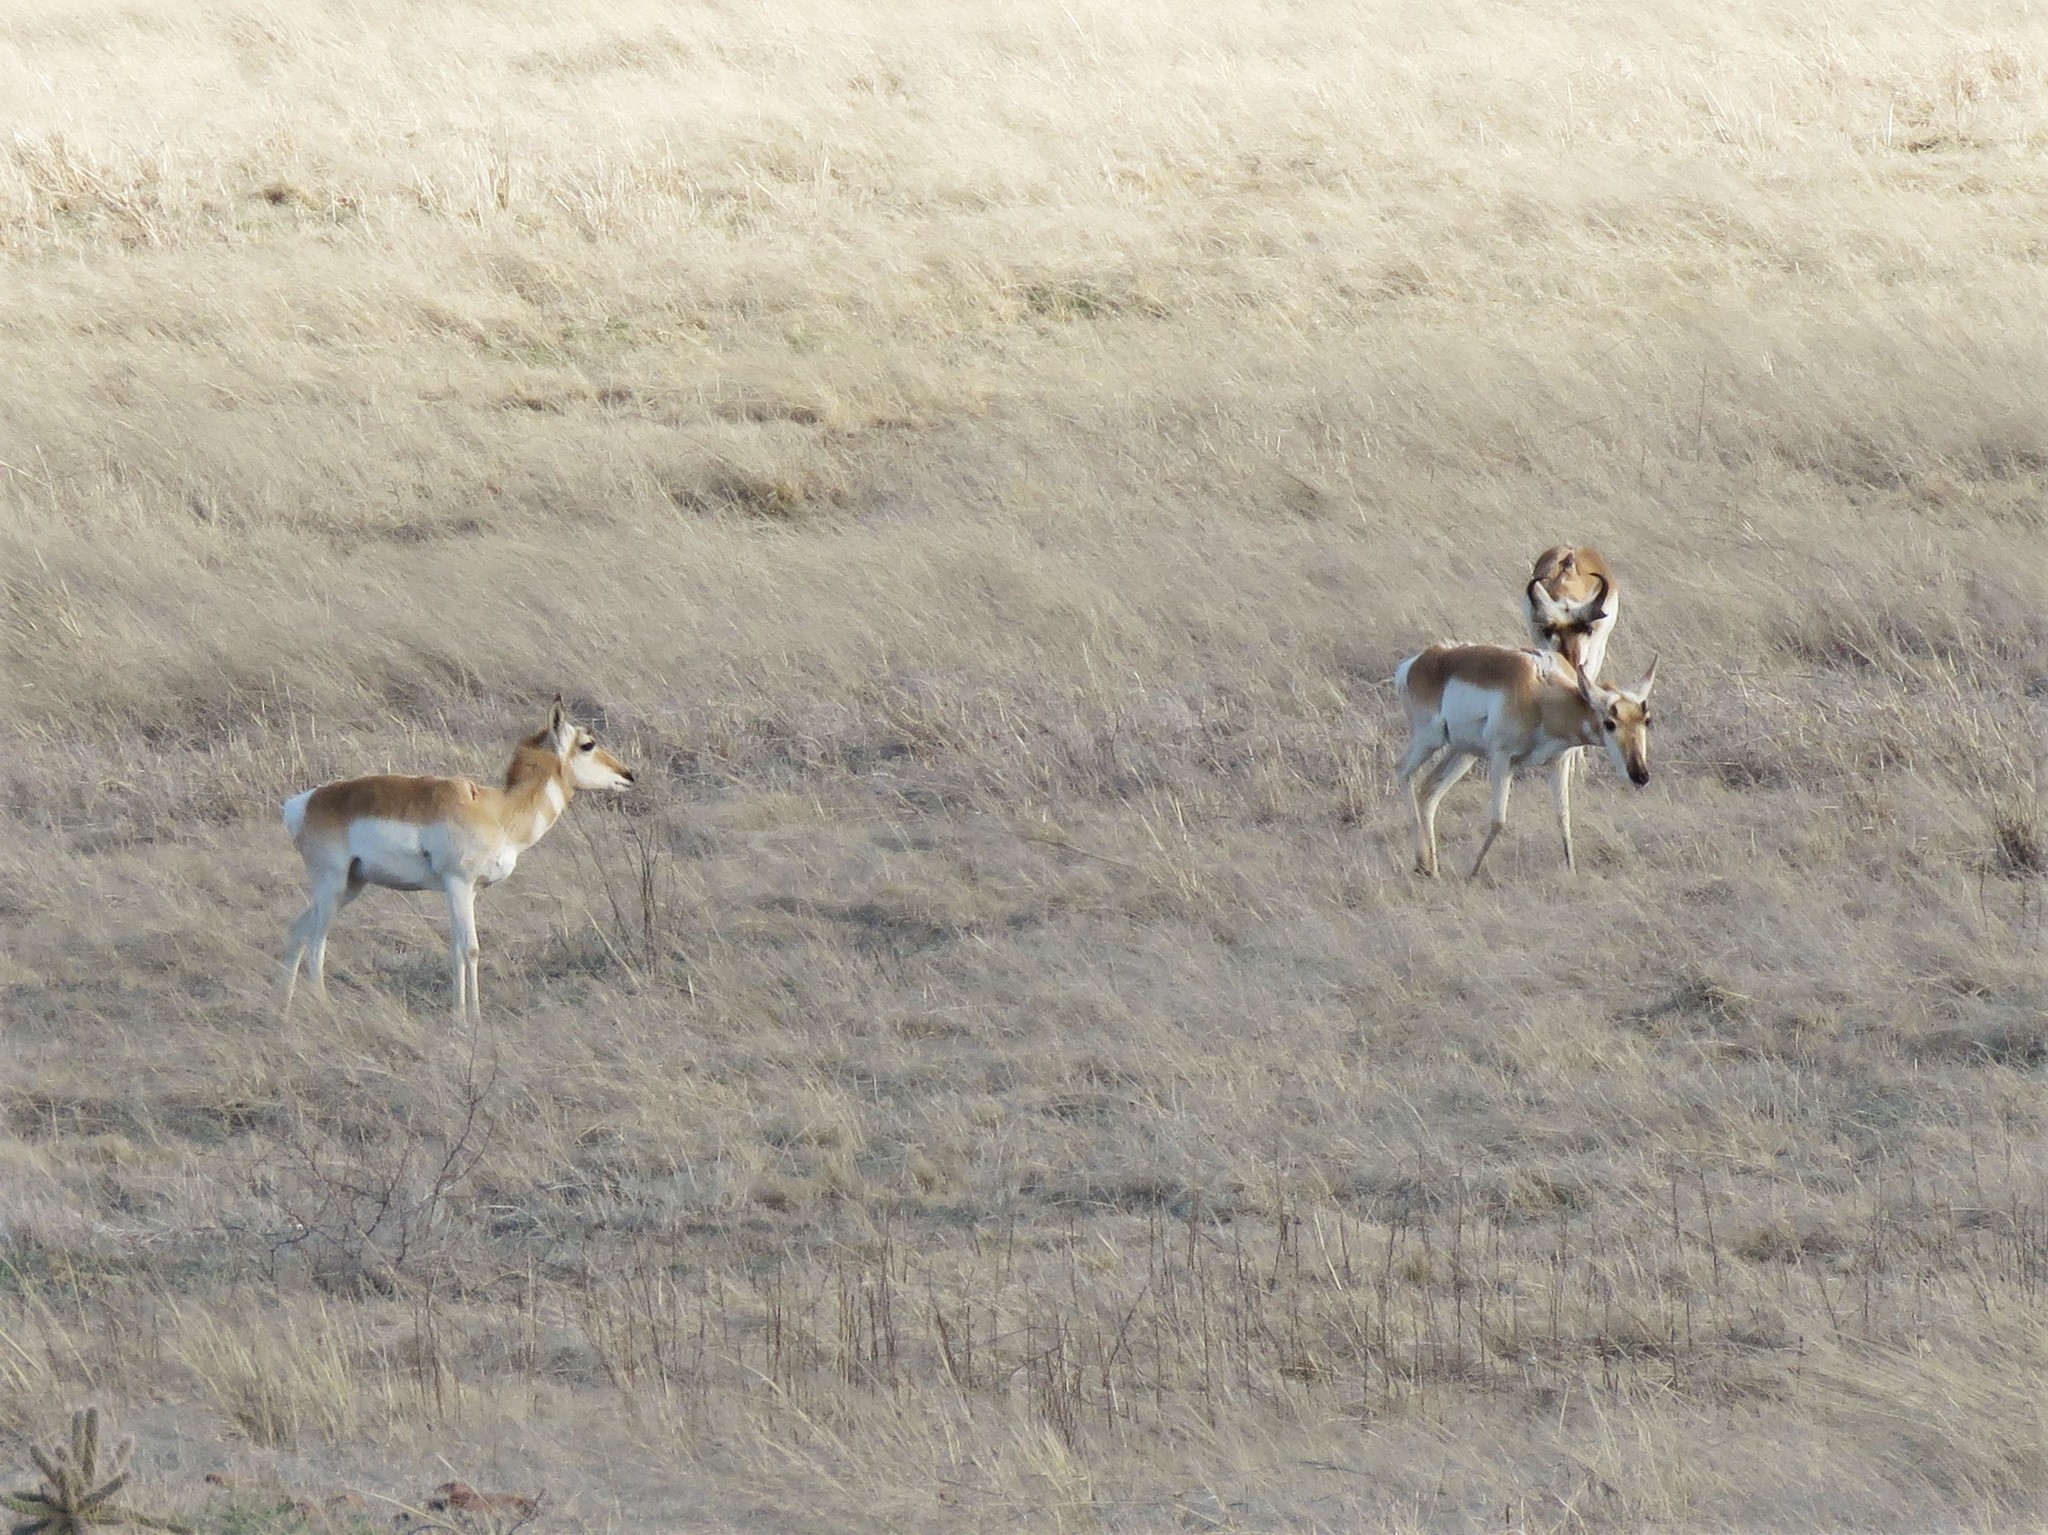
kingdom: Animalia
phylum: Chordata
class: Mammalia
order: Artiodactyla
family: Antilocapridae
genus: Antilocapra
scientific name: Antilocapra americana
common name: Pronghorn
